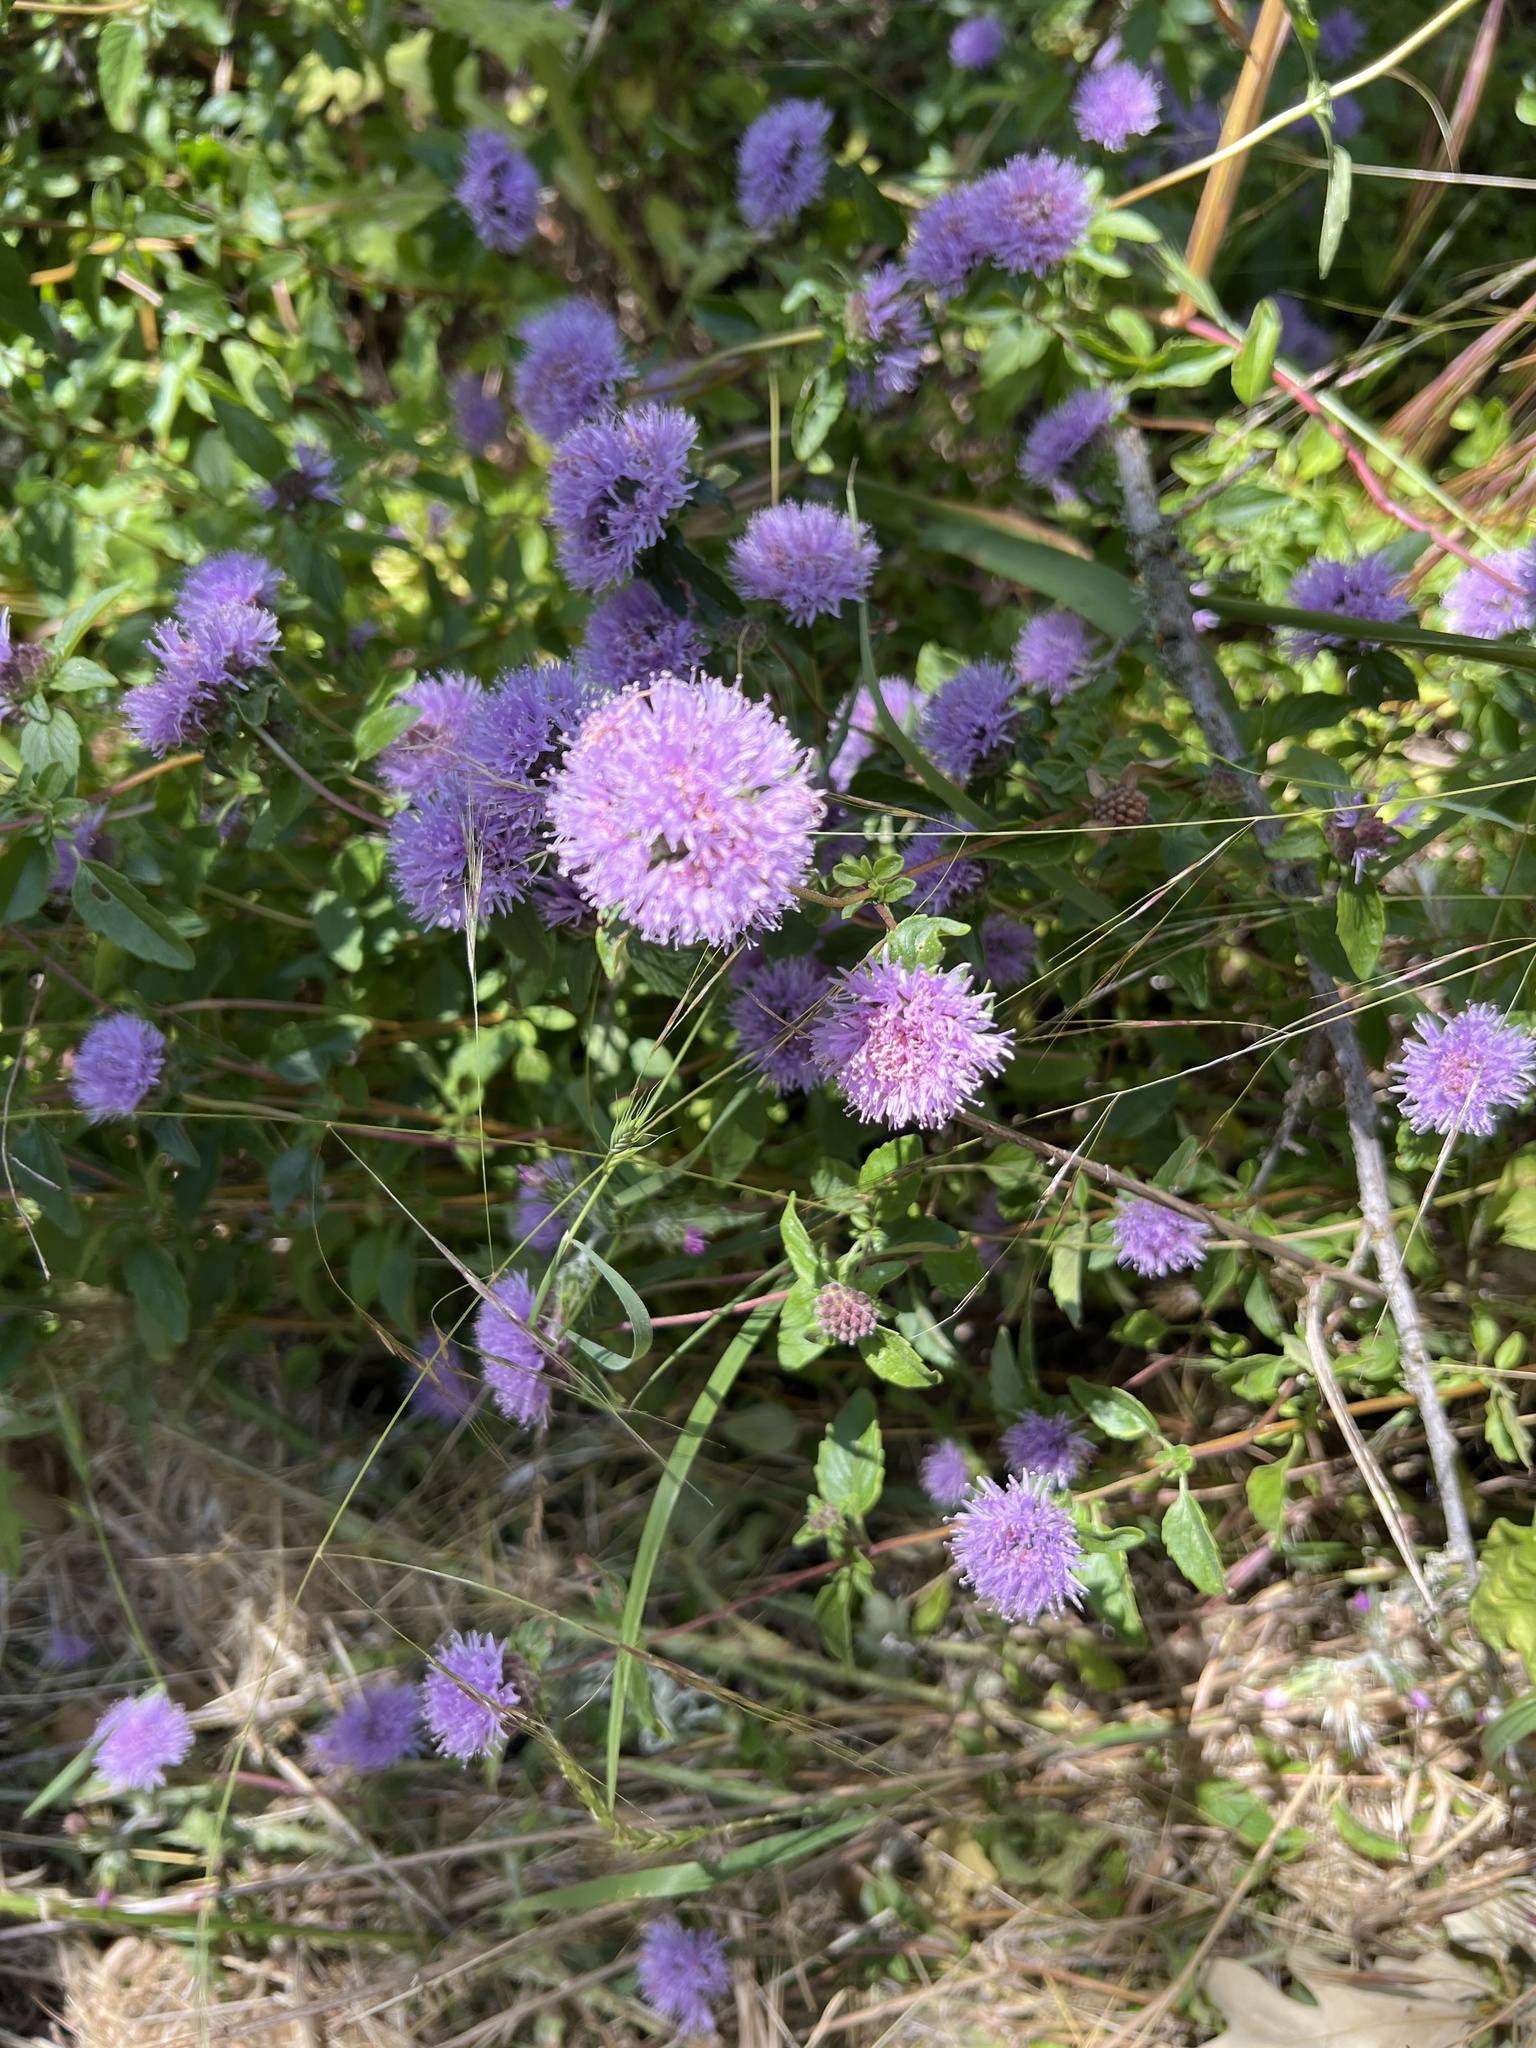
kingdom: Plantae
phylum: Tracheophyta
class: Magnoliopsida
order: Lamiales
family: Lamiaceae
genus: Monardella
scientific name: Monardella odoratissima
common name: Pacific monardella
